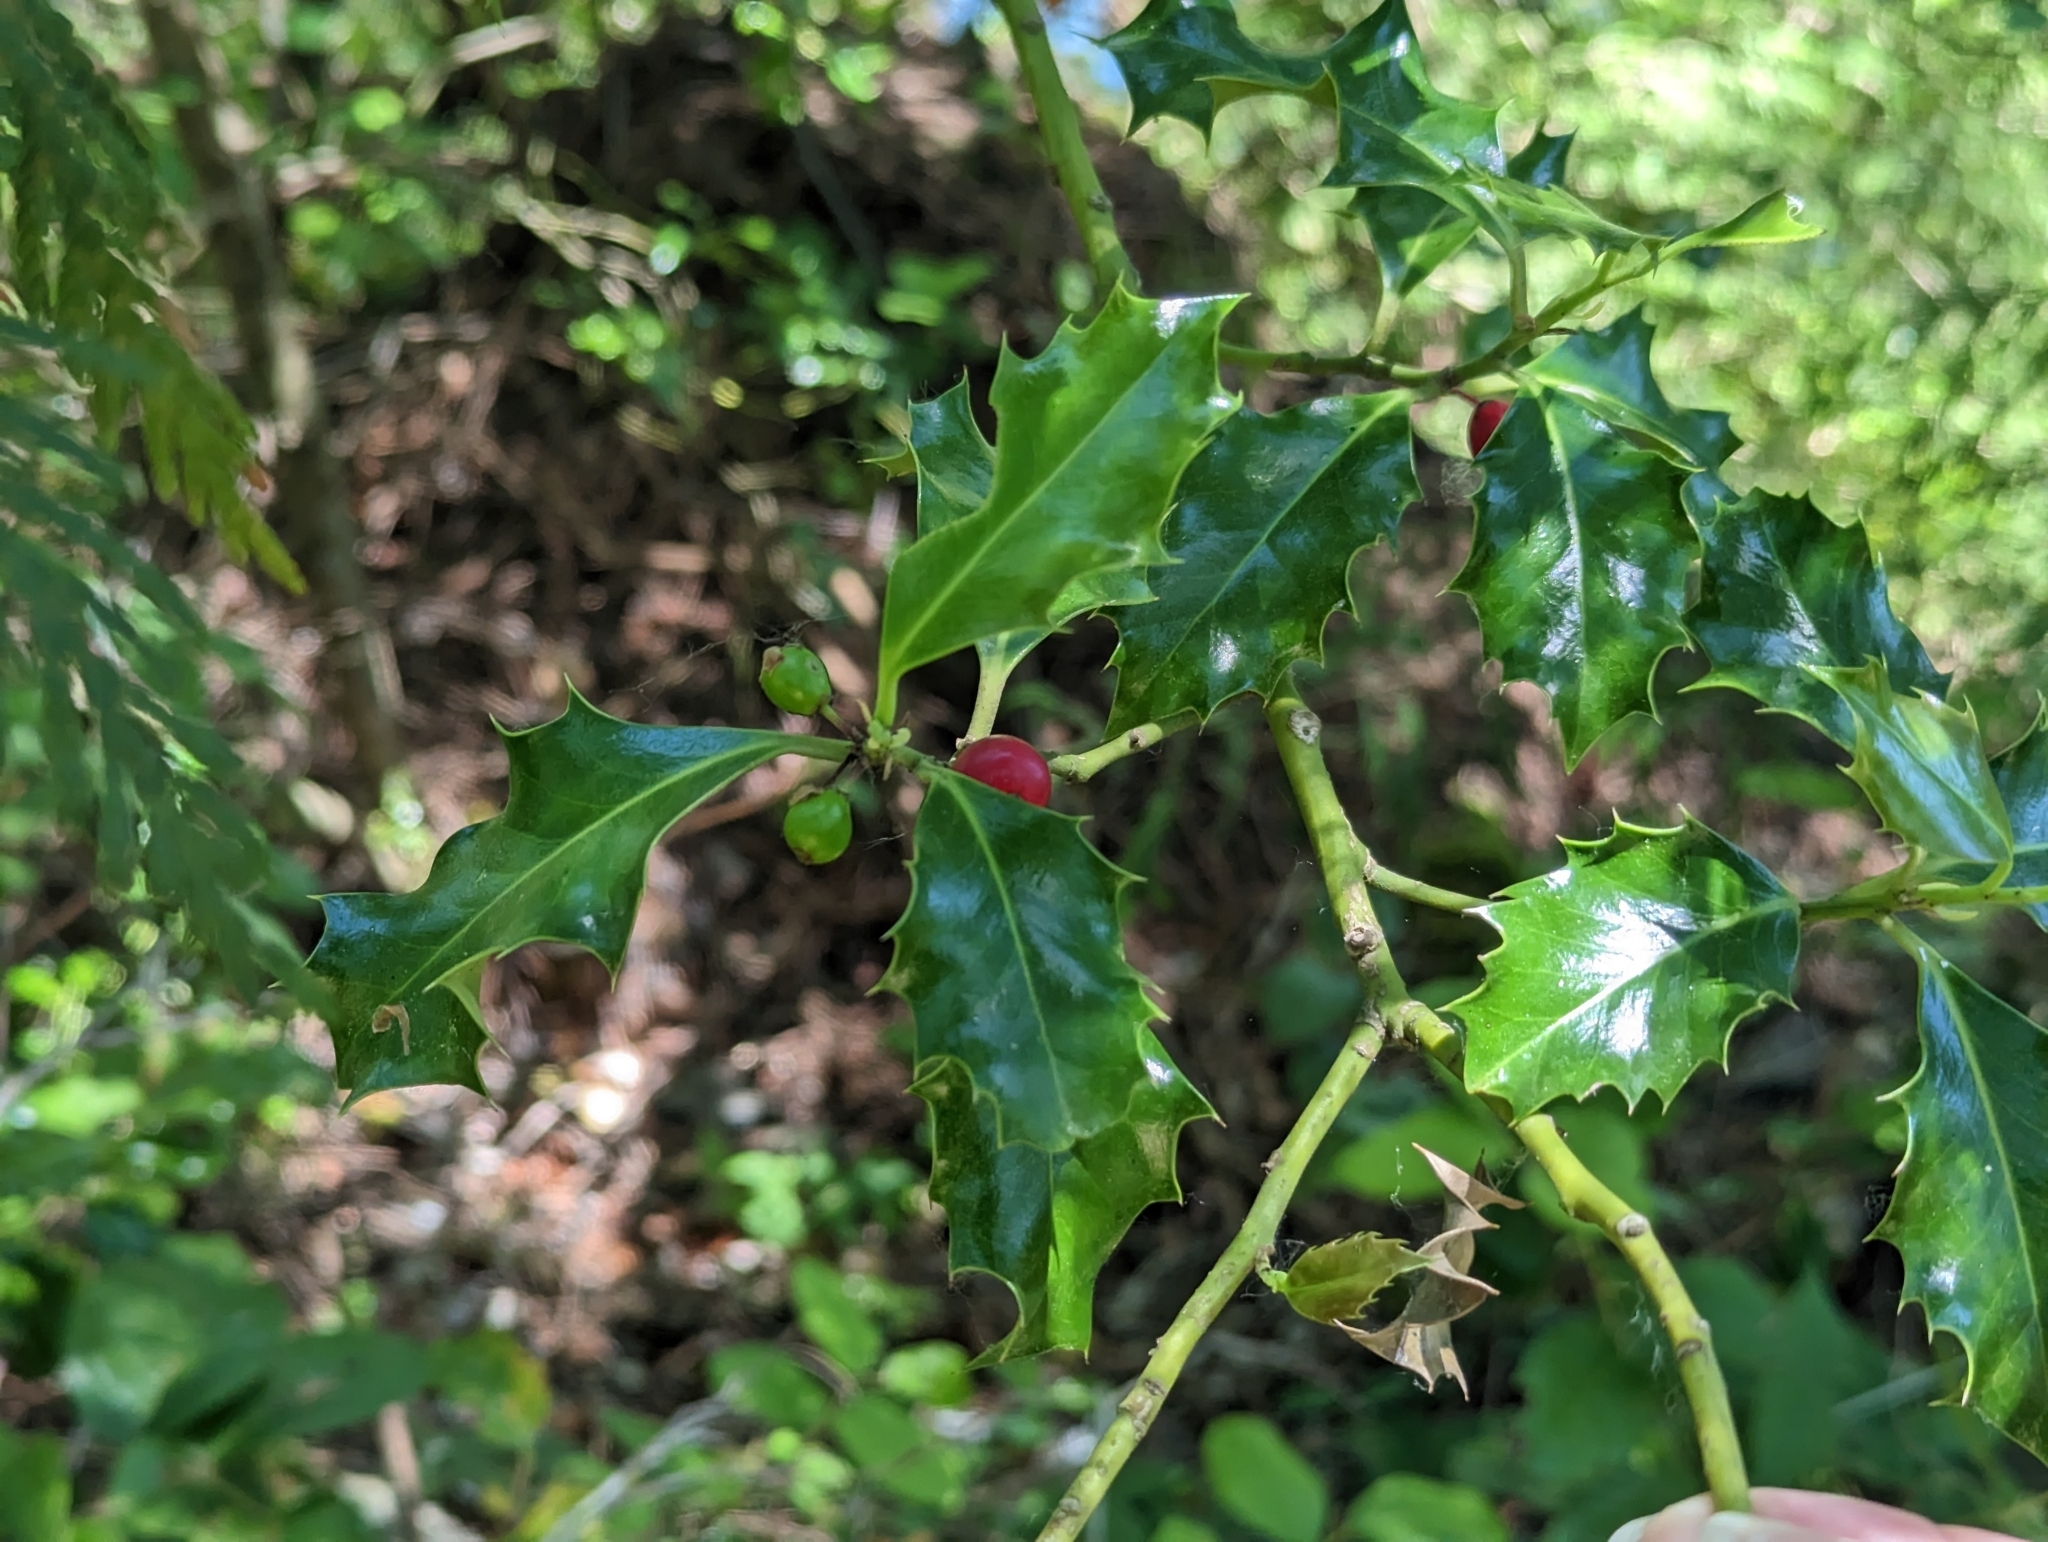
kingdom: Plantae
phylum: Tracheophyta
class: Magnoliopsida
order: Aquifoliales
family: Aquifoliaceae
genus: Ilex
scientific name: Ilex aquifolium
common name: English holly
